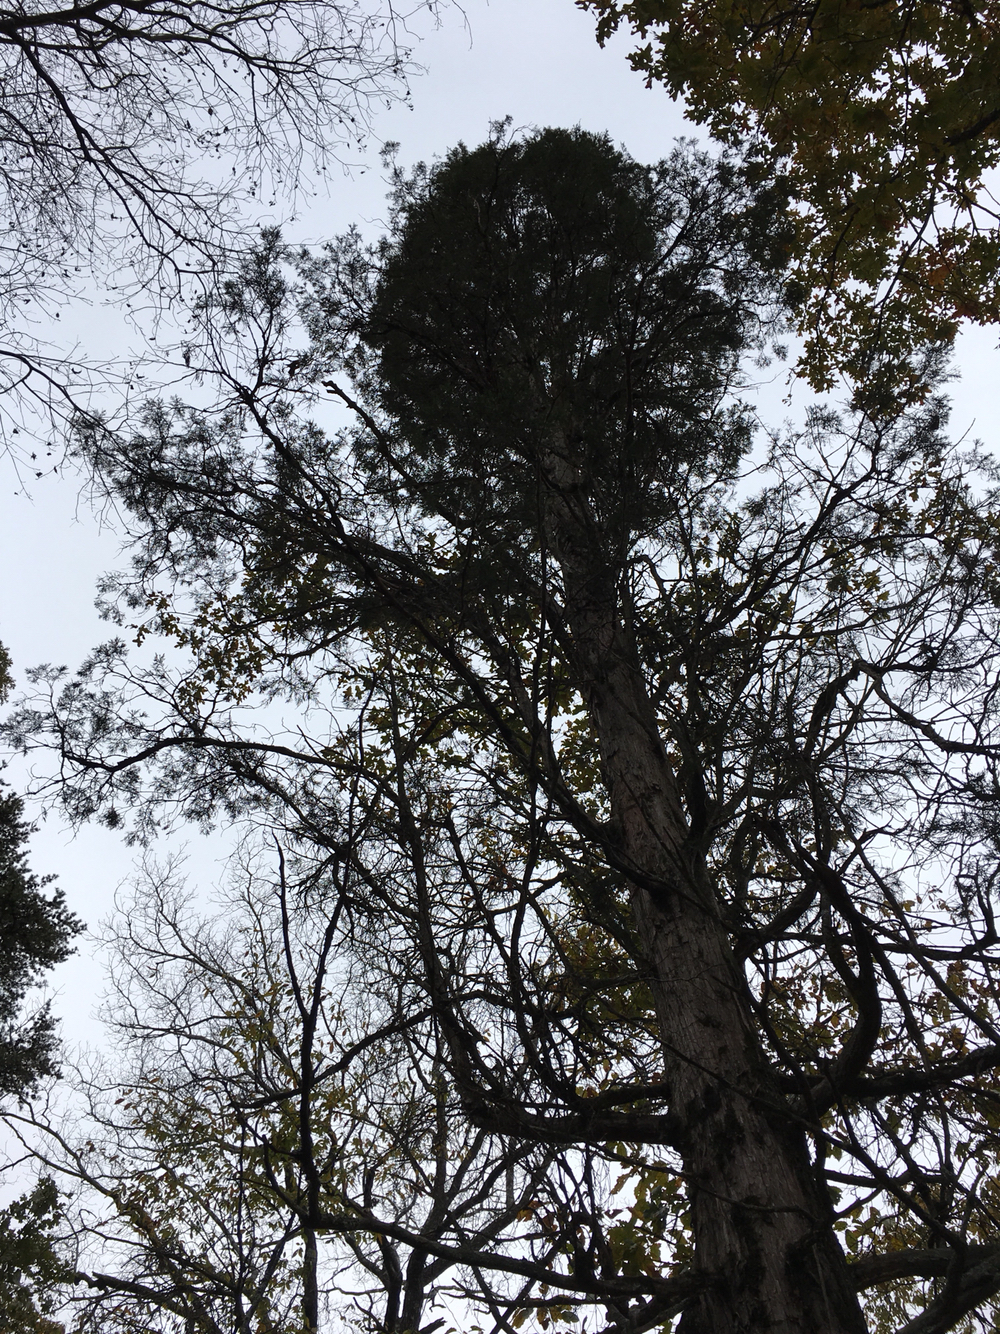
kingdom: Plantae
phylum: Tracheophyta
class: Pinopsida
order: Pinales
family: Cupressaceae
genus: Juniperus
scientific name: Juniperus virginiana
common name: Red juniper
